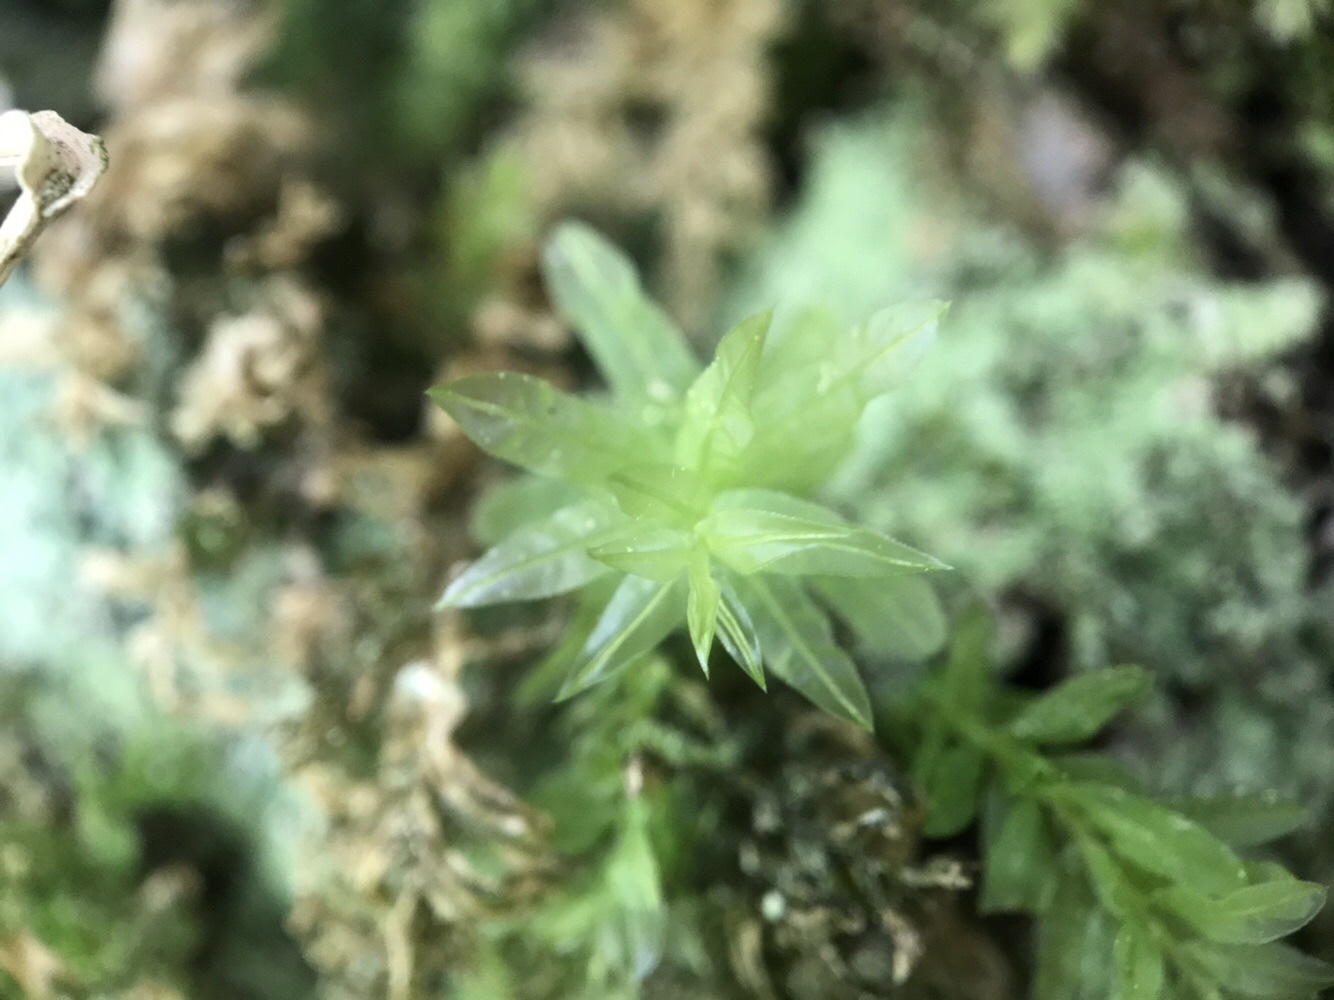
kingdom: Plantae
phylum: Bryophyta
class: Bryopsida
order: Bryales
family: Mniaceae
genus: Plagiomnium
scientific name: Plagiomnium undulatum
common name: Hart's-tongue thyme-moss
